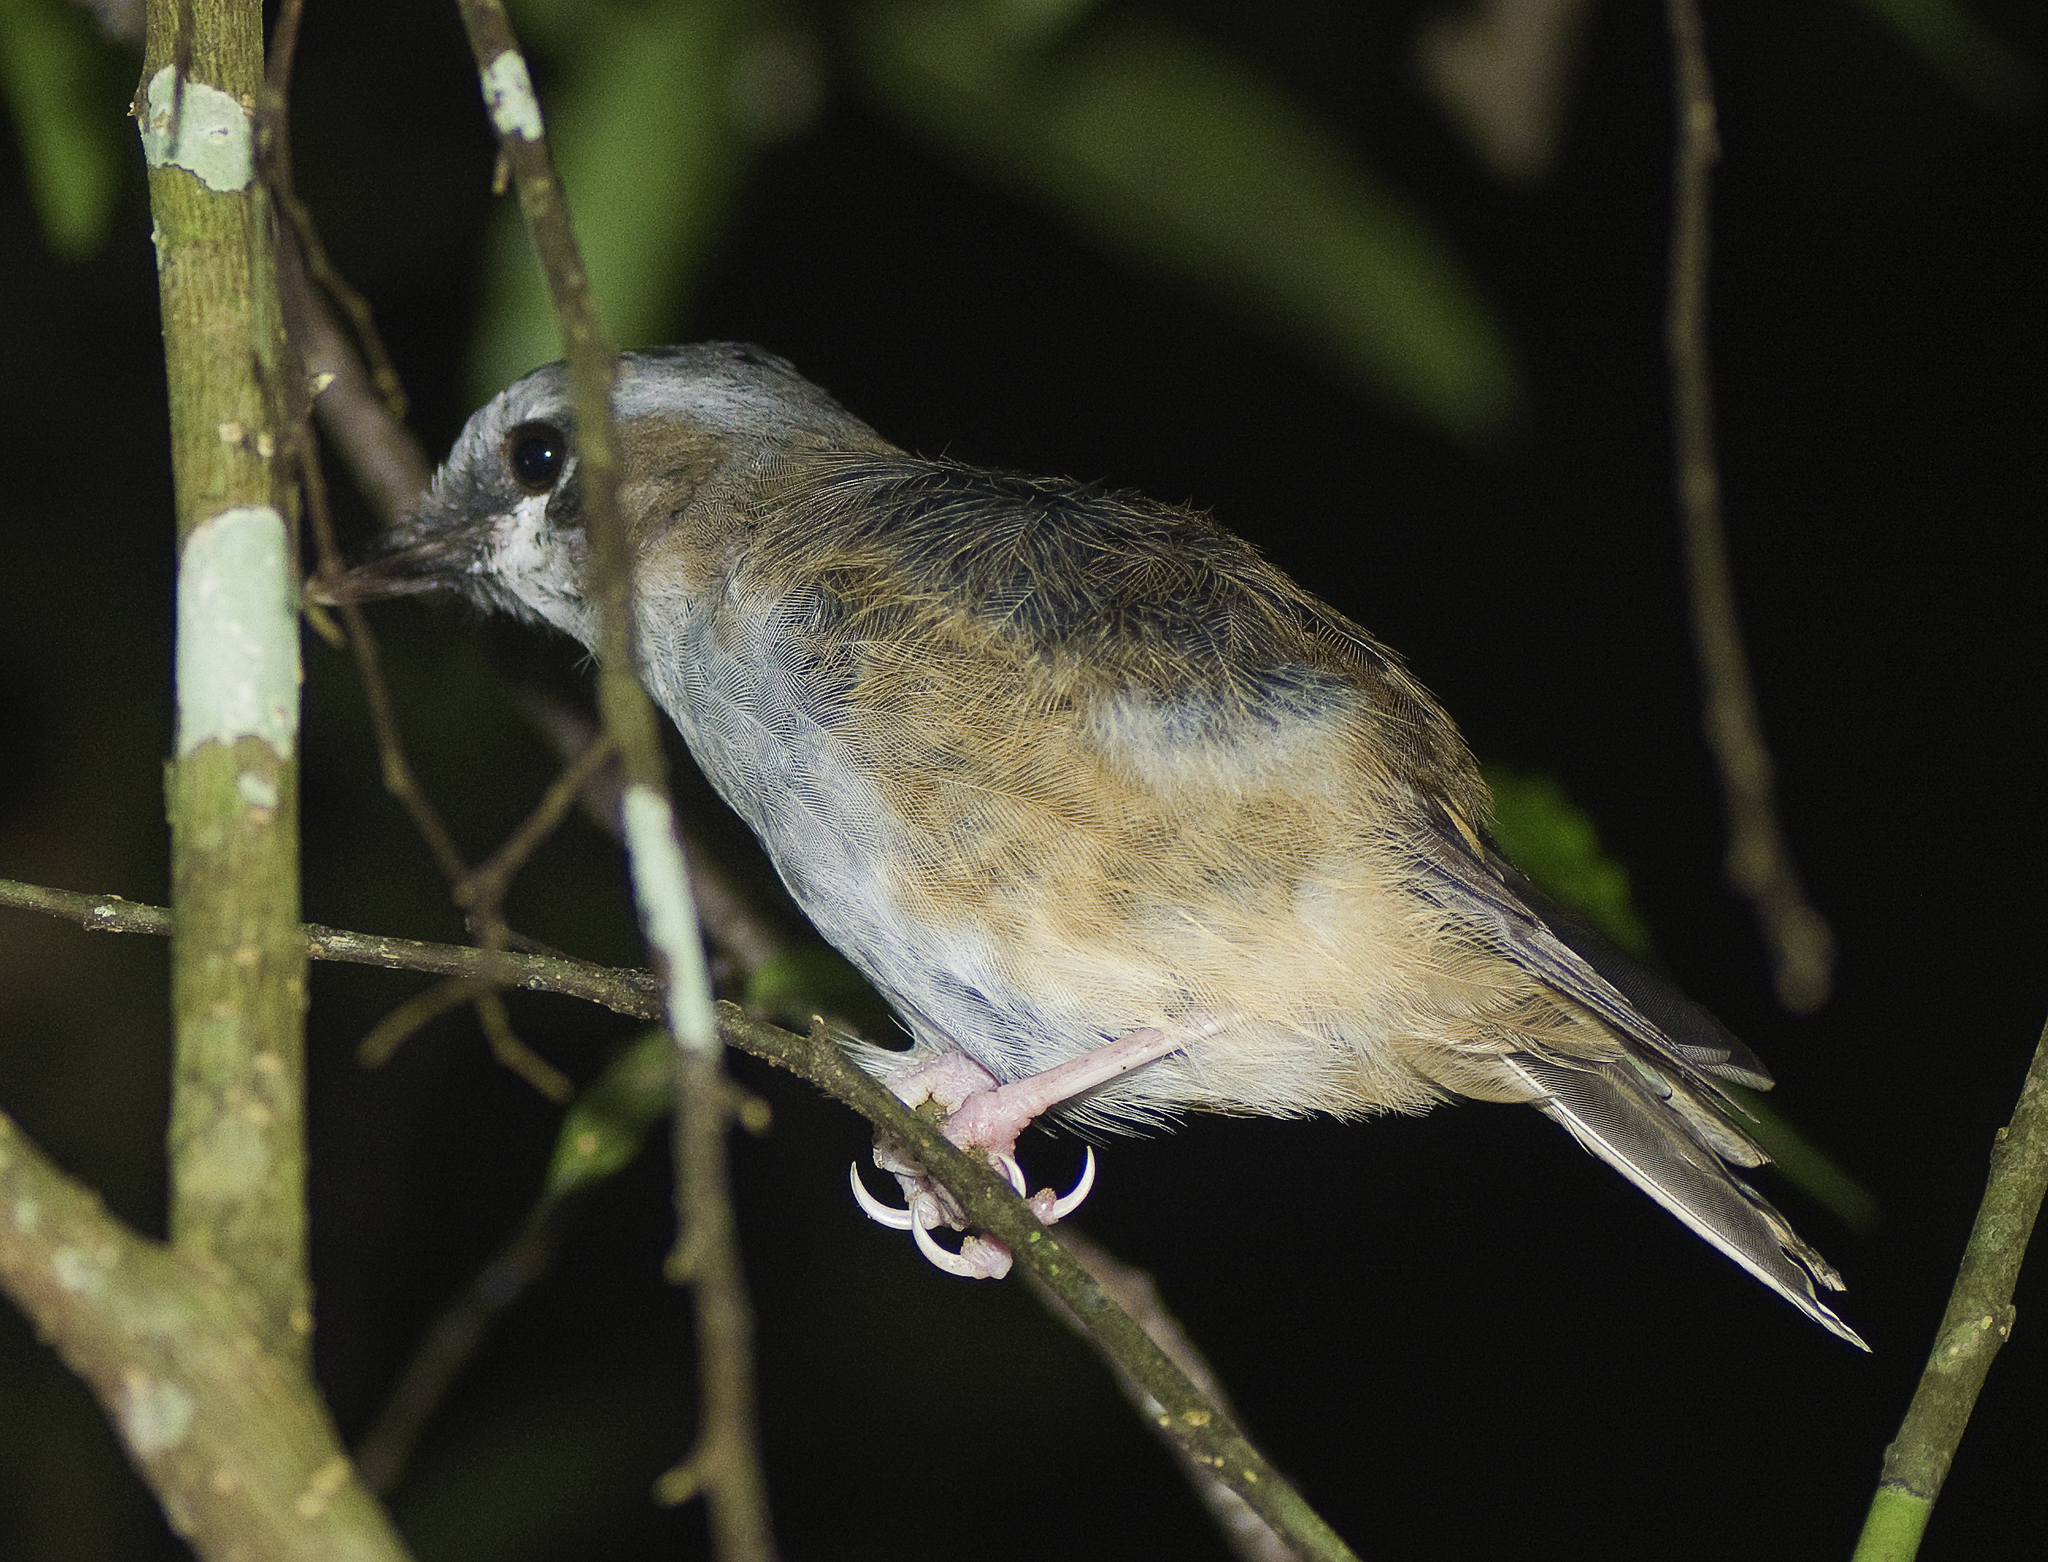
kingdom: Animalia
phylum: Chordata
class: Aves
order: Passeriformes
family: Petroicidae
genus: Heteromyias
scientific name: Heteromyias cinereifrons
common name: Grey-headed robin
